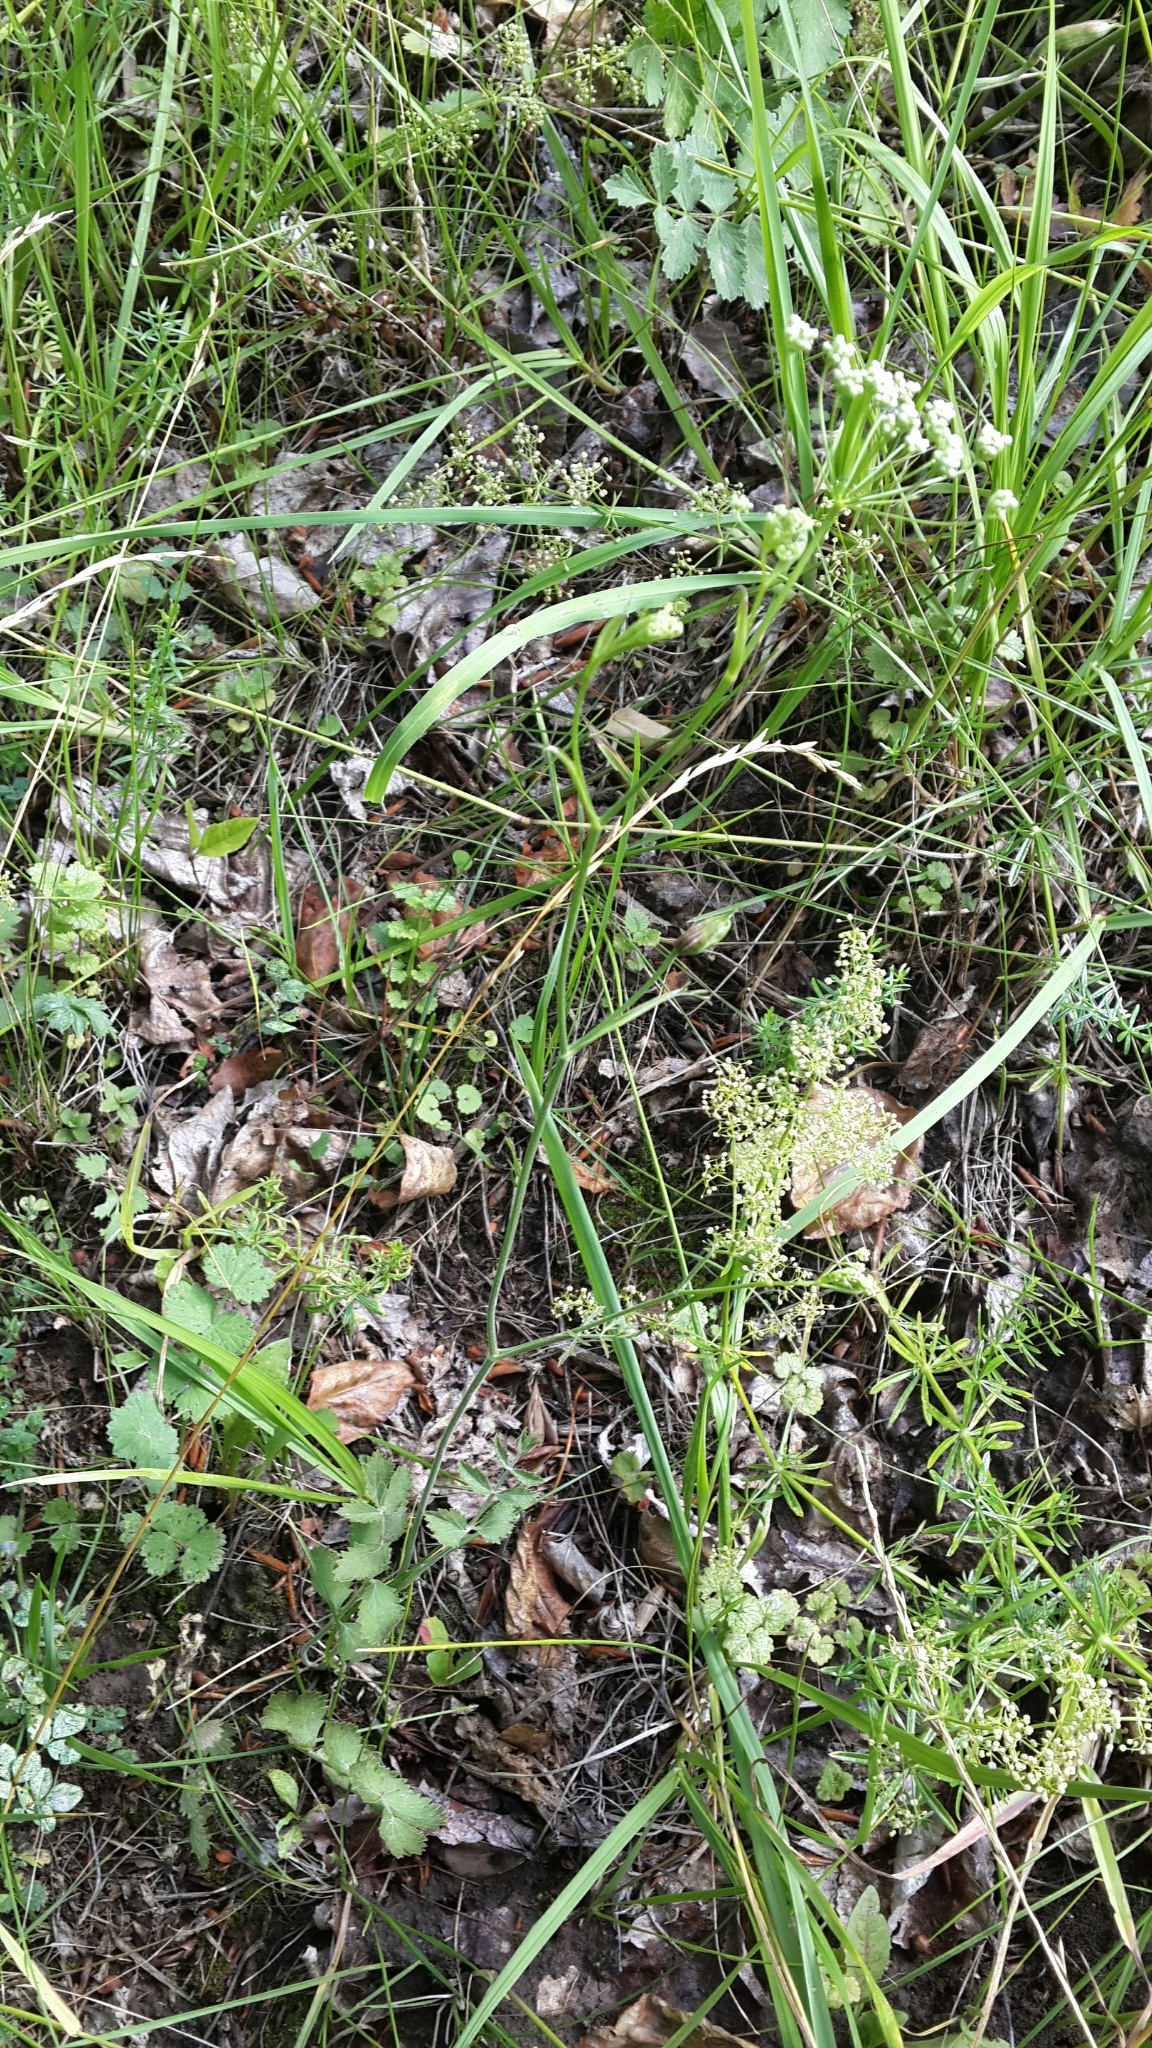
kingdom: Plantae
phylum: Tracheophyta
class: Magnoliopsida
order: Apiales
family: Apiaceae
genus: Pimpinella
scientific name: Pimpinella saxifraga
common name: Burnet-saxifrage
